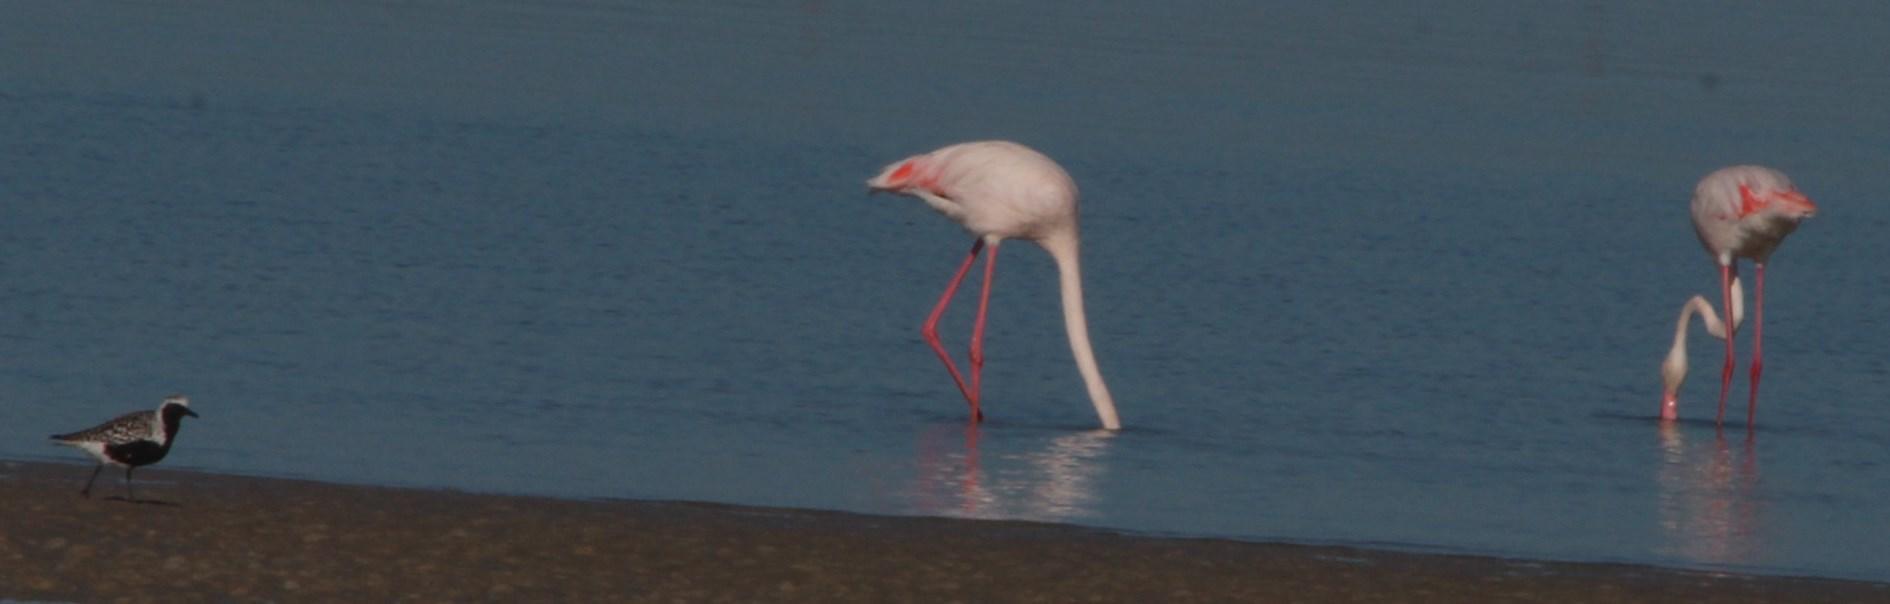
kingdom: Animalia
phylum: Chordata
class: Aves
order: Phoenicopteriformes
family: Phoenicopteridae
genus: Phoenicopterus
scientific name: Phoenicopterus roseus
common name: Greater flamingo
